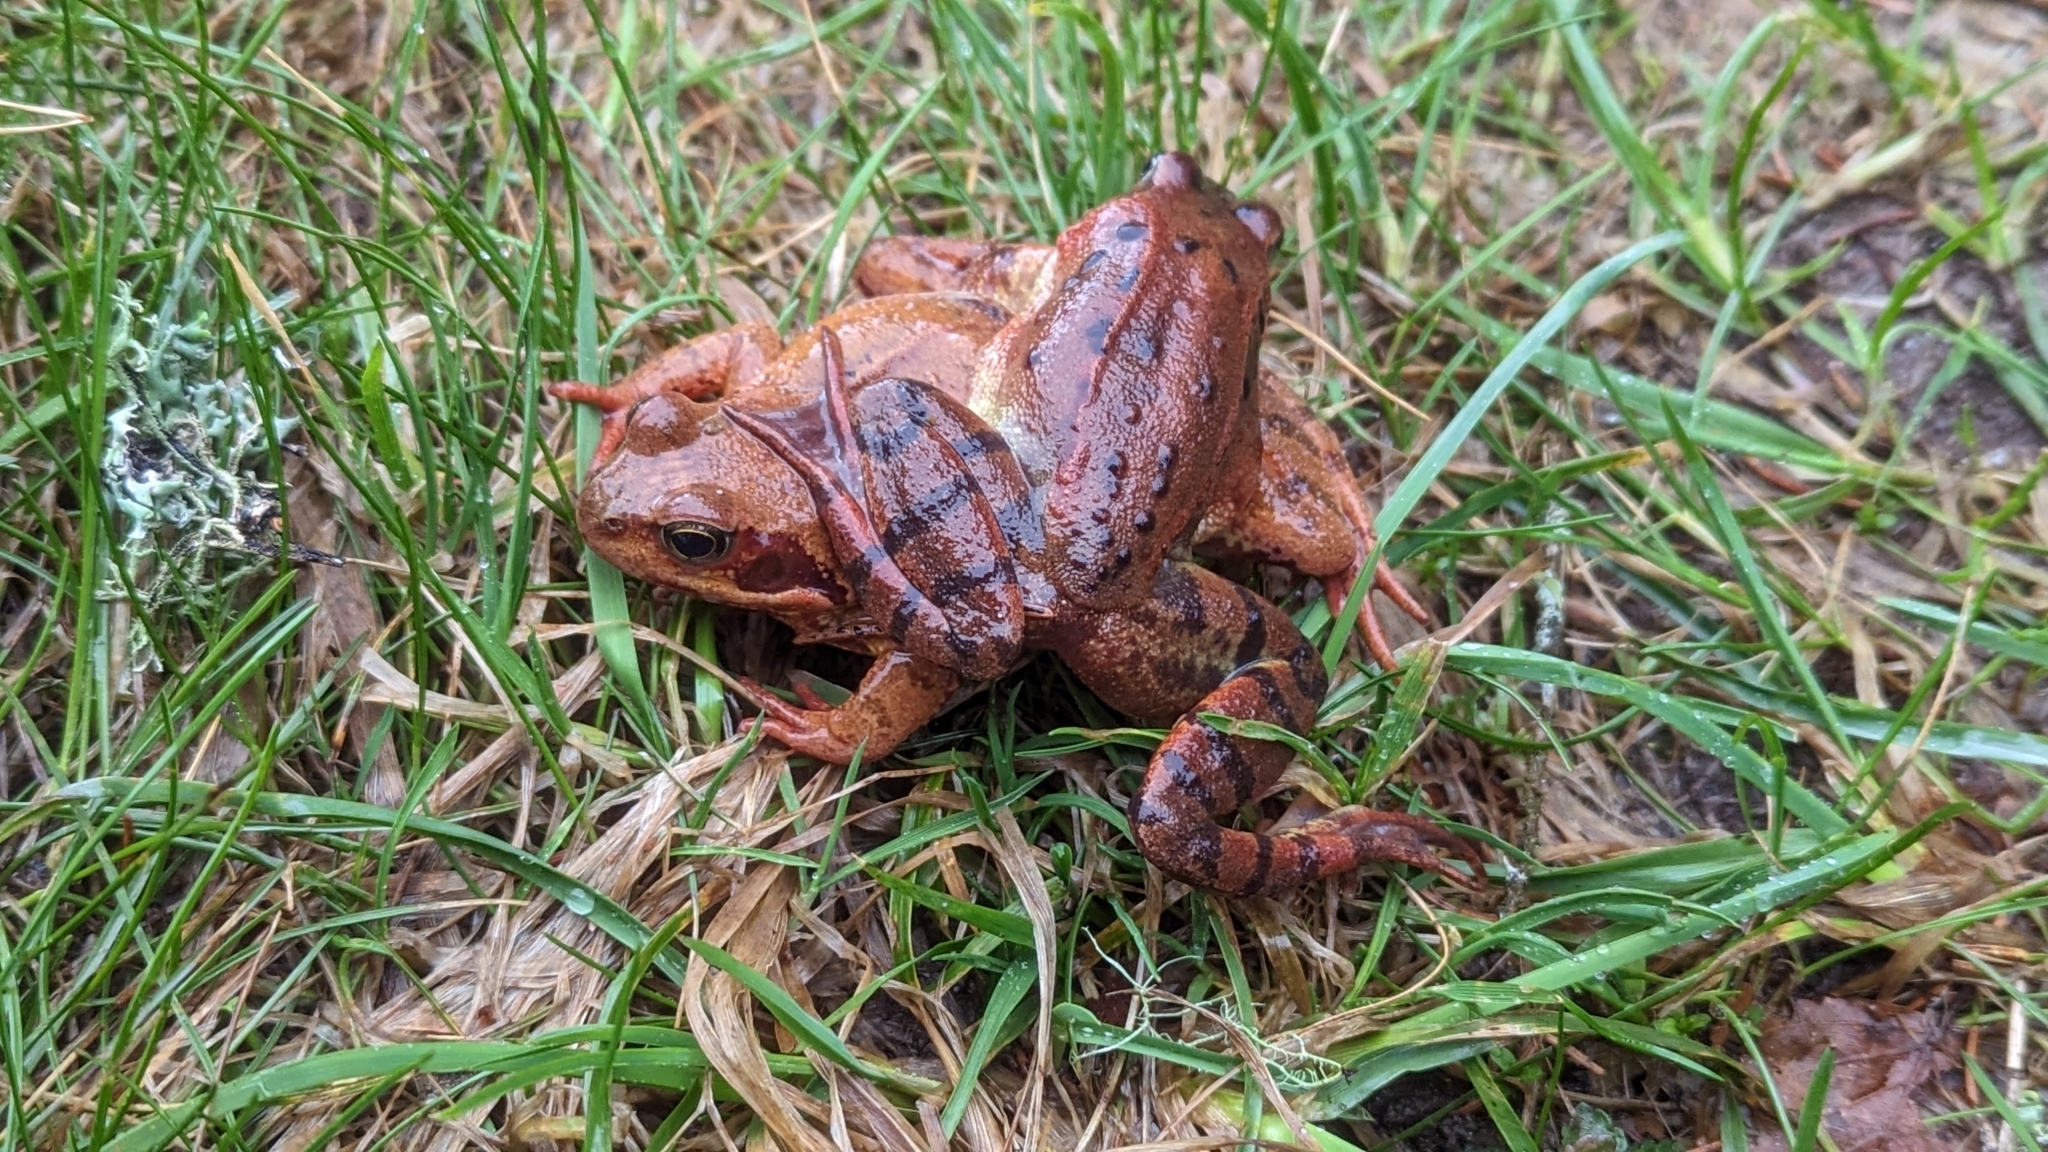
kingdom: Animalia
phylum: Chordata
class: Amphibia
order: Anura
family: Ranidae
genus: Rana
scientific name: Rana temporaria
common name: Common frog
